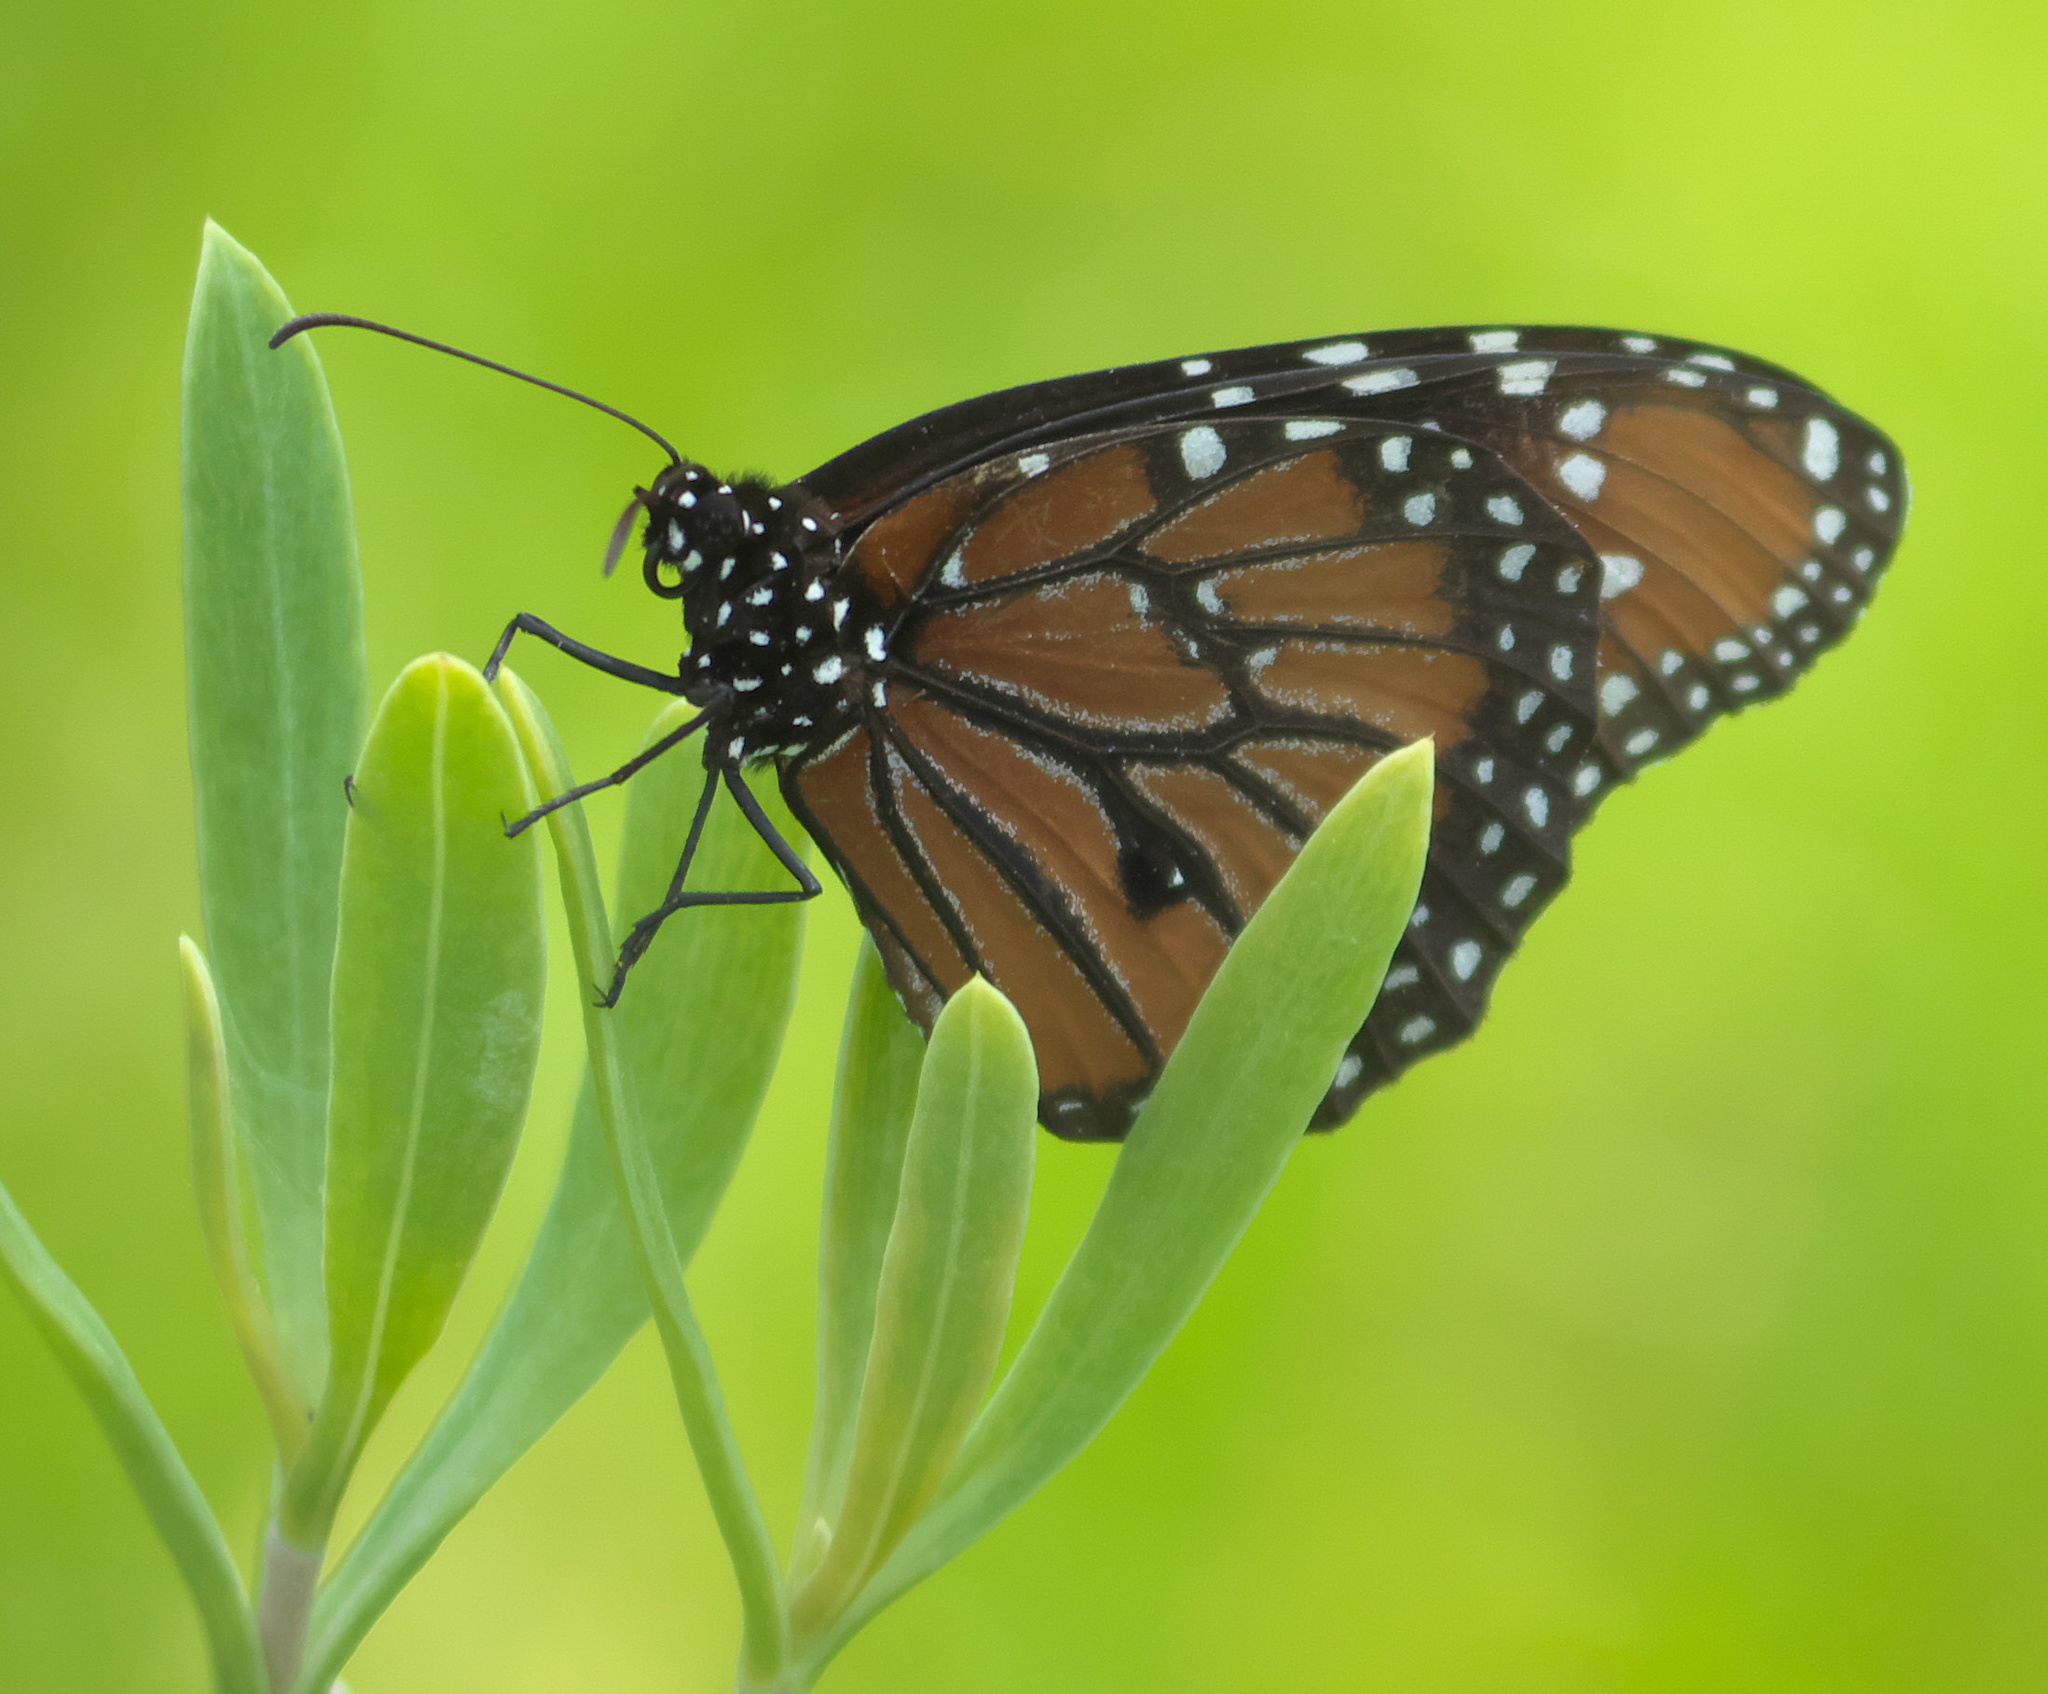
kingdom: Animalia
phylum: Arthropoda
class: Insecta
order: Lepidoptera
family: Nymphalidae
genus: Danaus
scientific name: Danaus gilippus
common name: Queen
